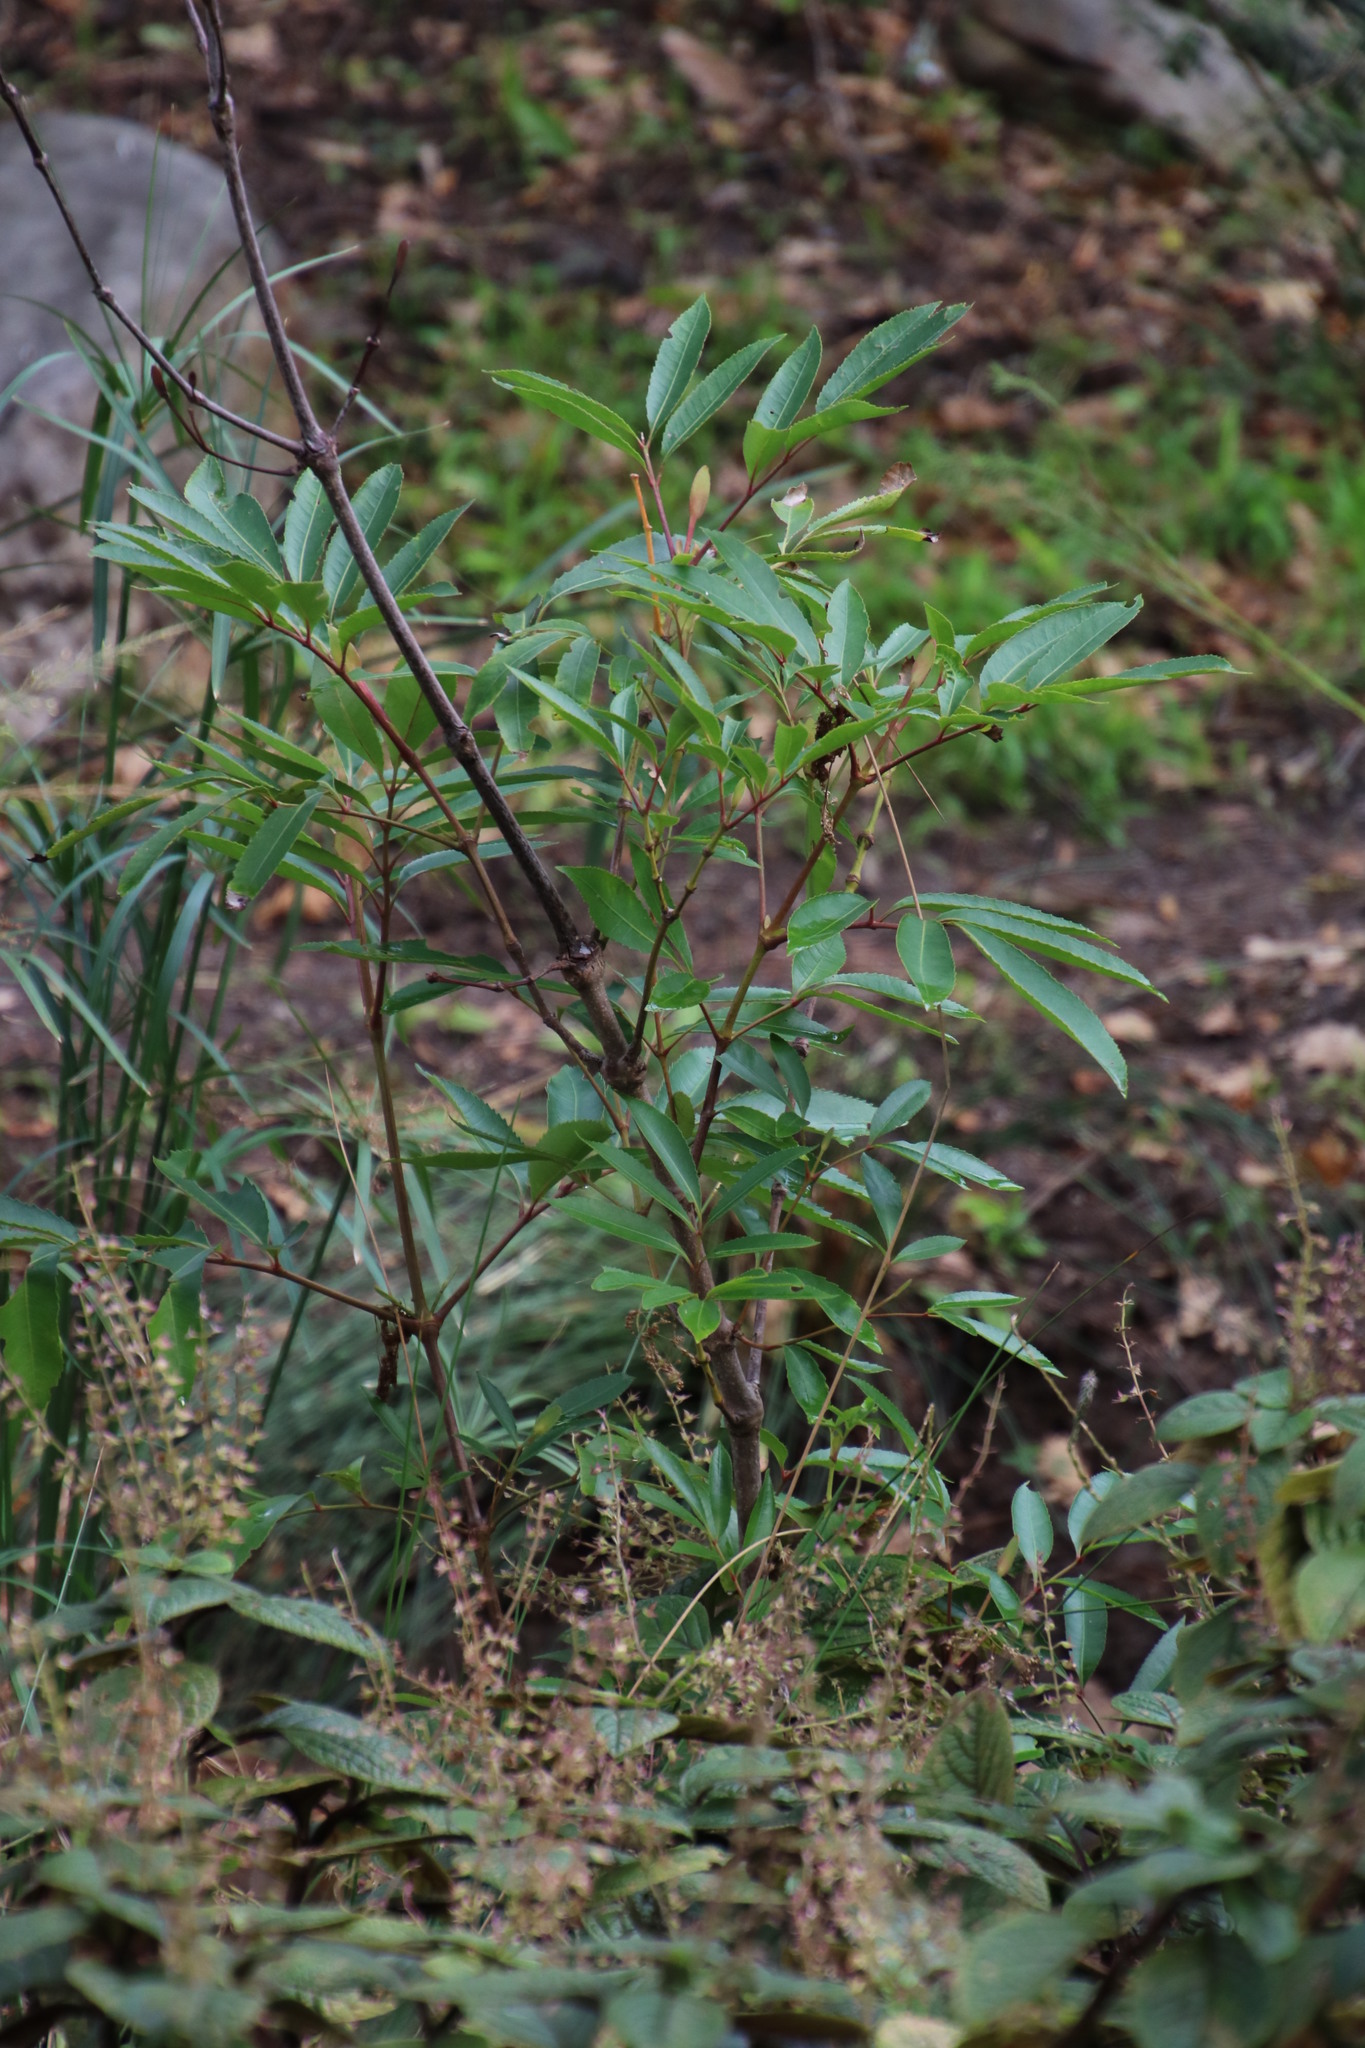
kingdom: Plantae
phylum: Tracheophyta
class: Magnoliopsida
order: Oxalidales
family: Cunoniaceae
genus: Cunonia
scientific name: Cunonia capensis
